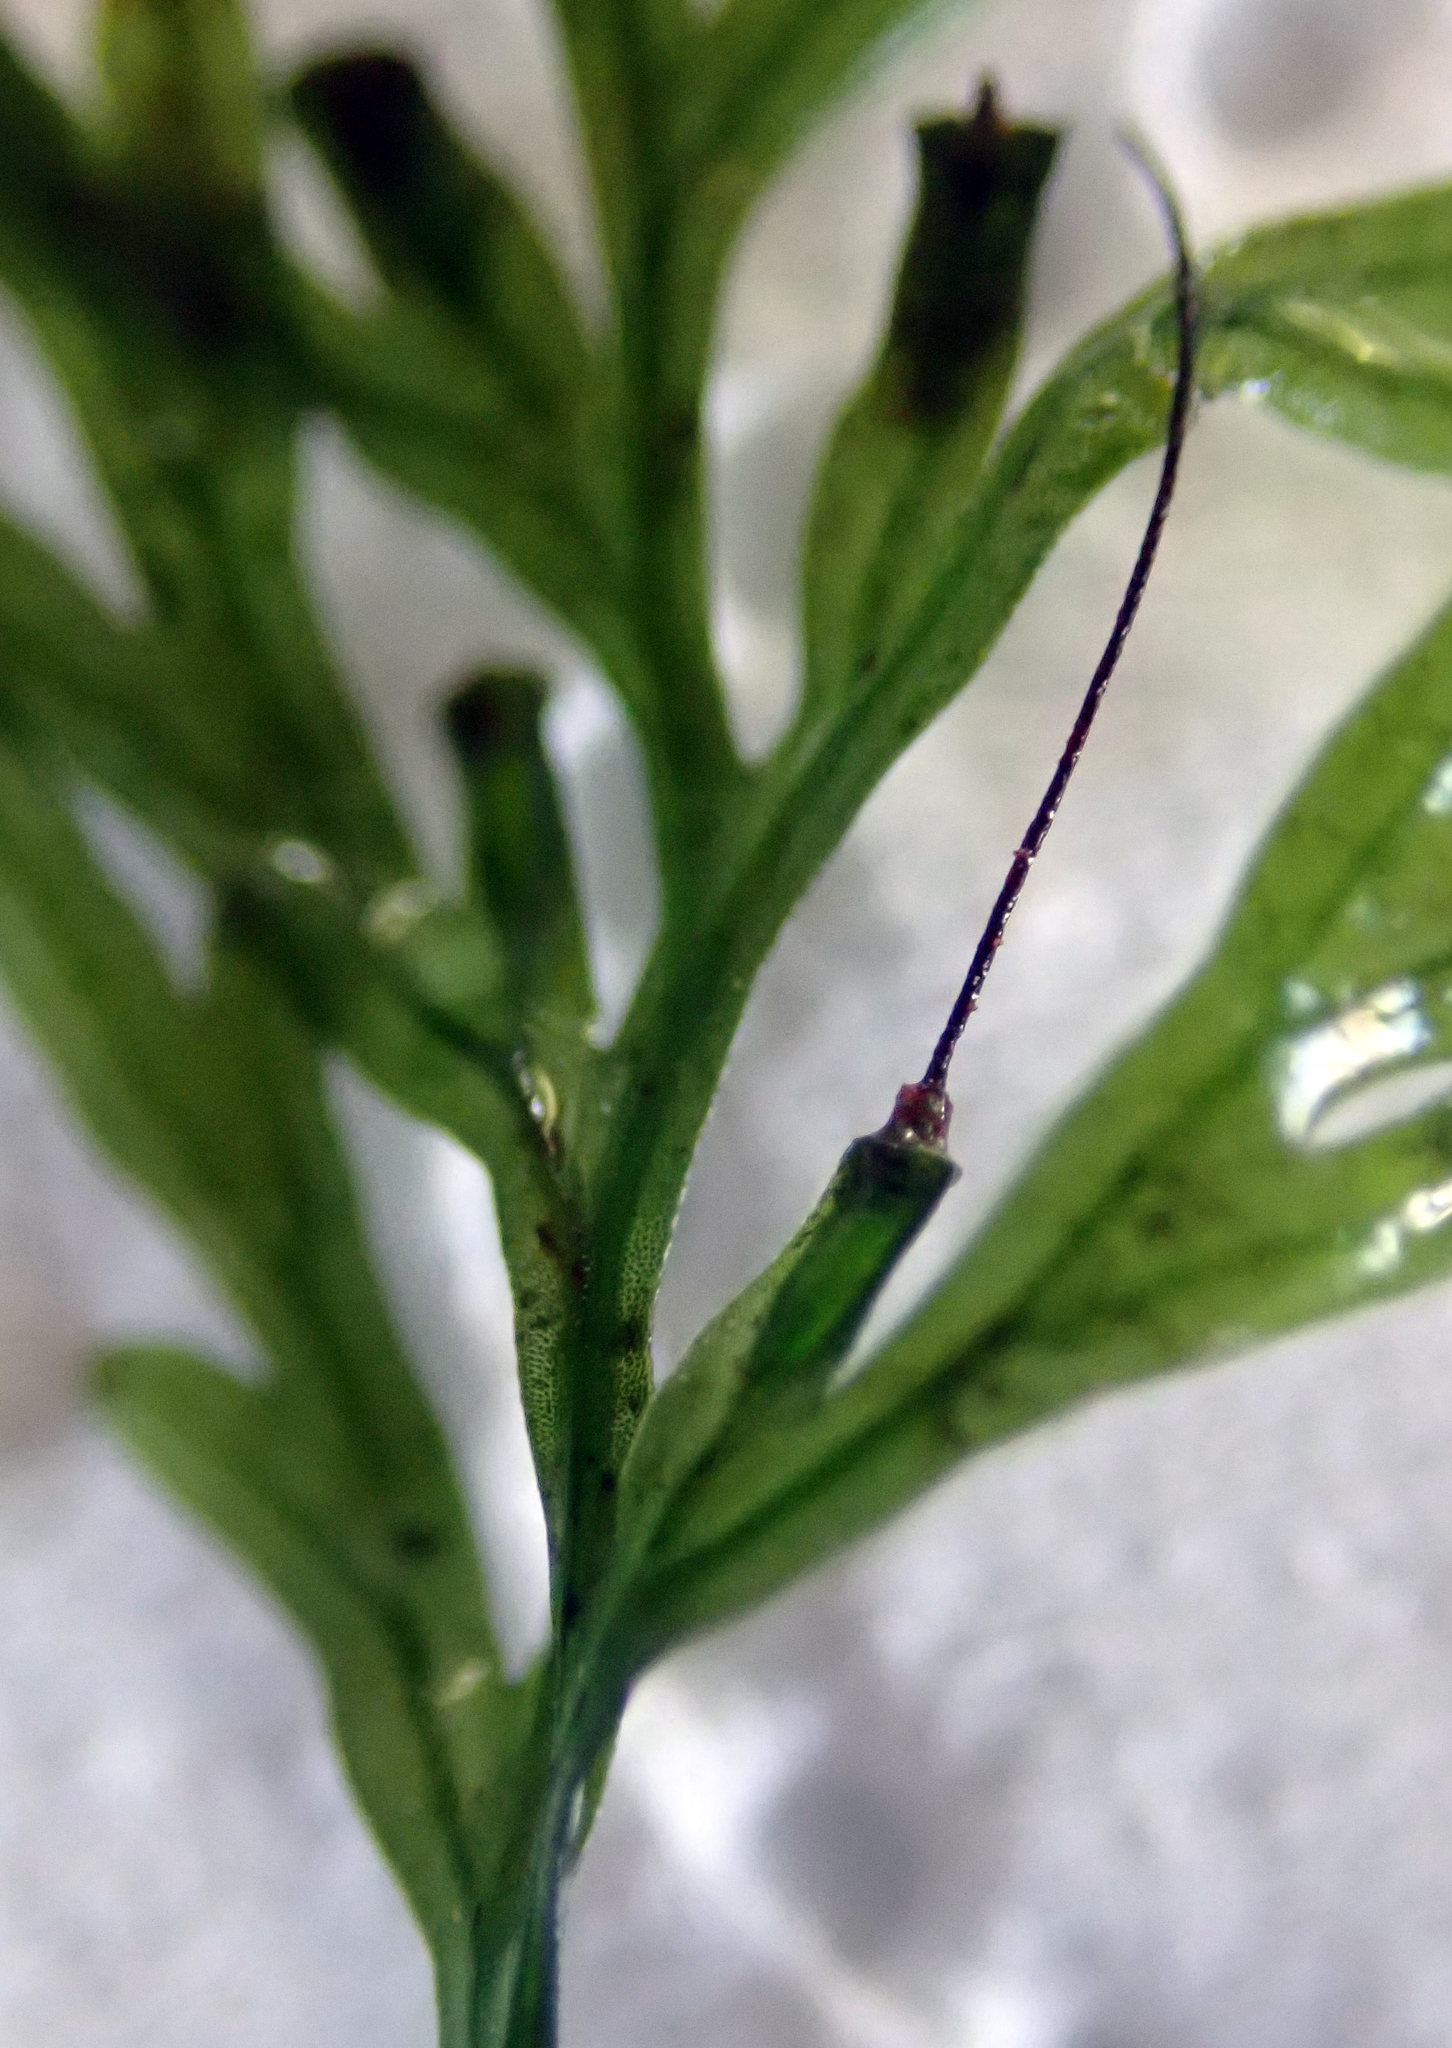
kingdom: Plantae
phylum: Tracheophyta
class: Polypodiopsida
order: Hymenophyllales
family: Hymenophyllaceae
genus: Polyphlebium
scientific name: Polyphlebium endlicherianum
